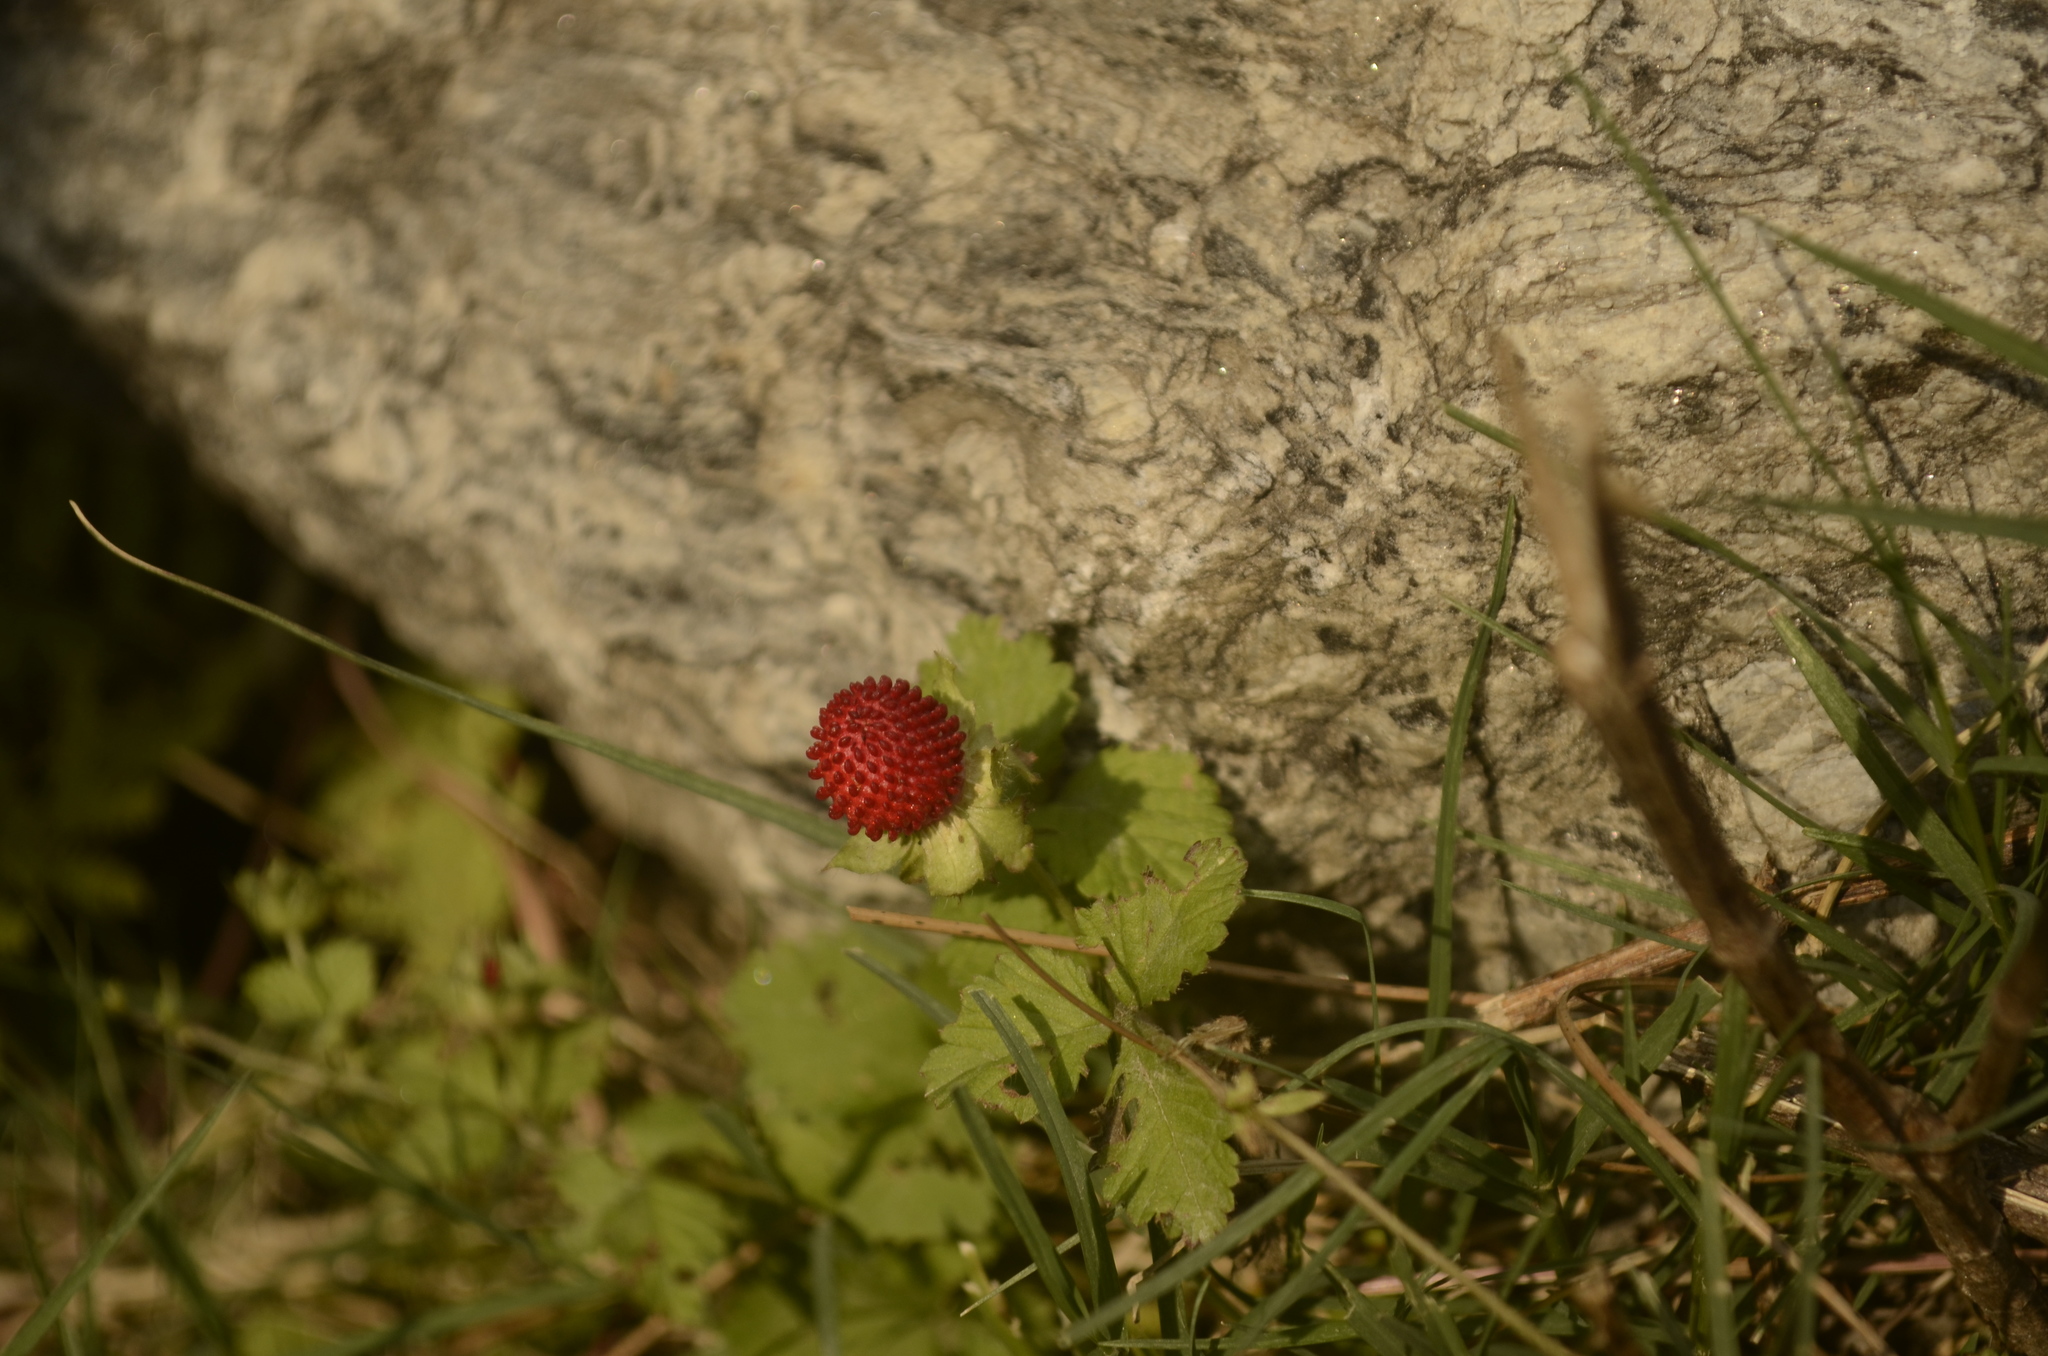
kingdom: Plantae
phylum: Tracheophyta
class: Magnoliopsida
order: Rosales
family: Rosaceae
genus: Potentilla
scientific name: Potentilla indica
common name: Yellow-flowered strawberry
